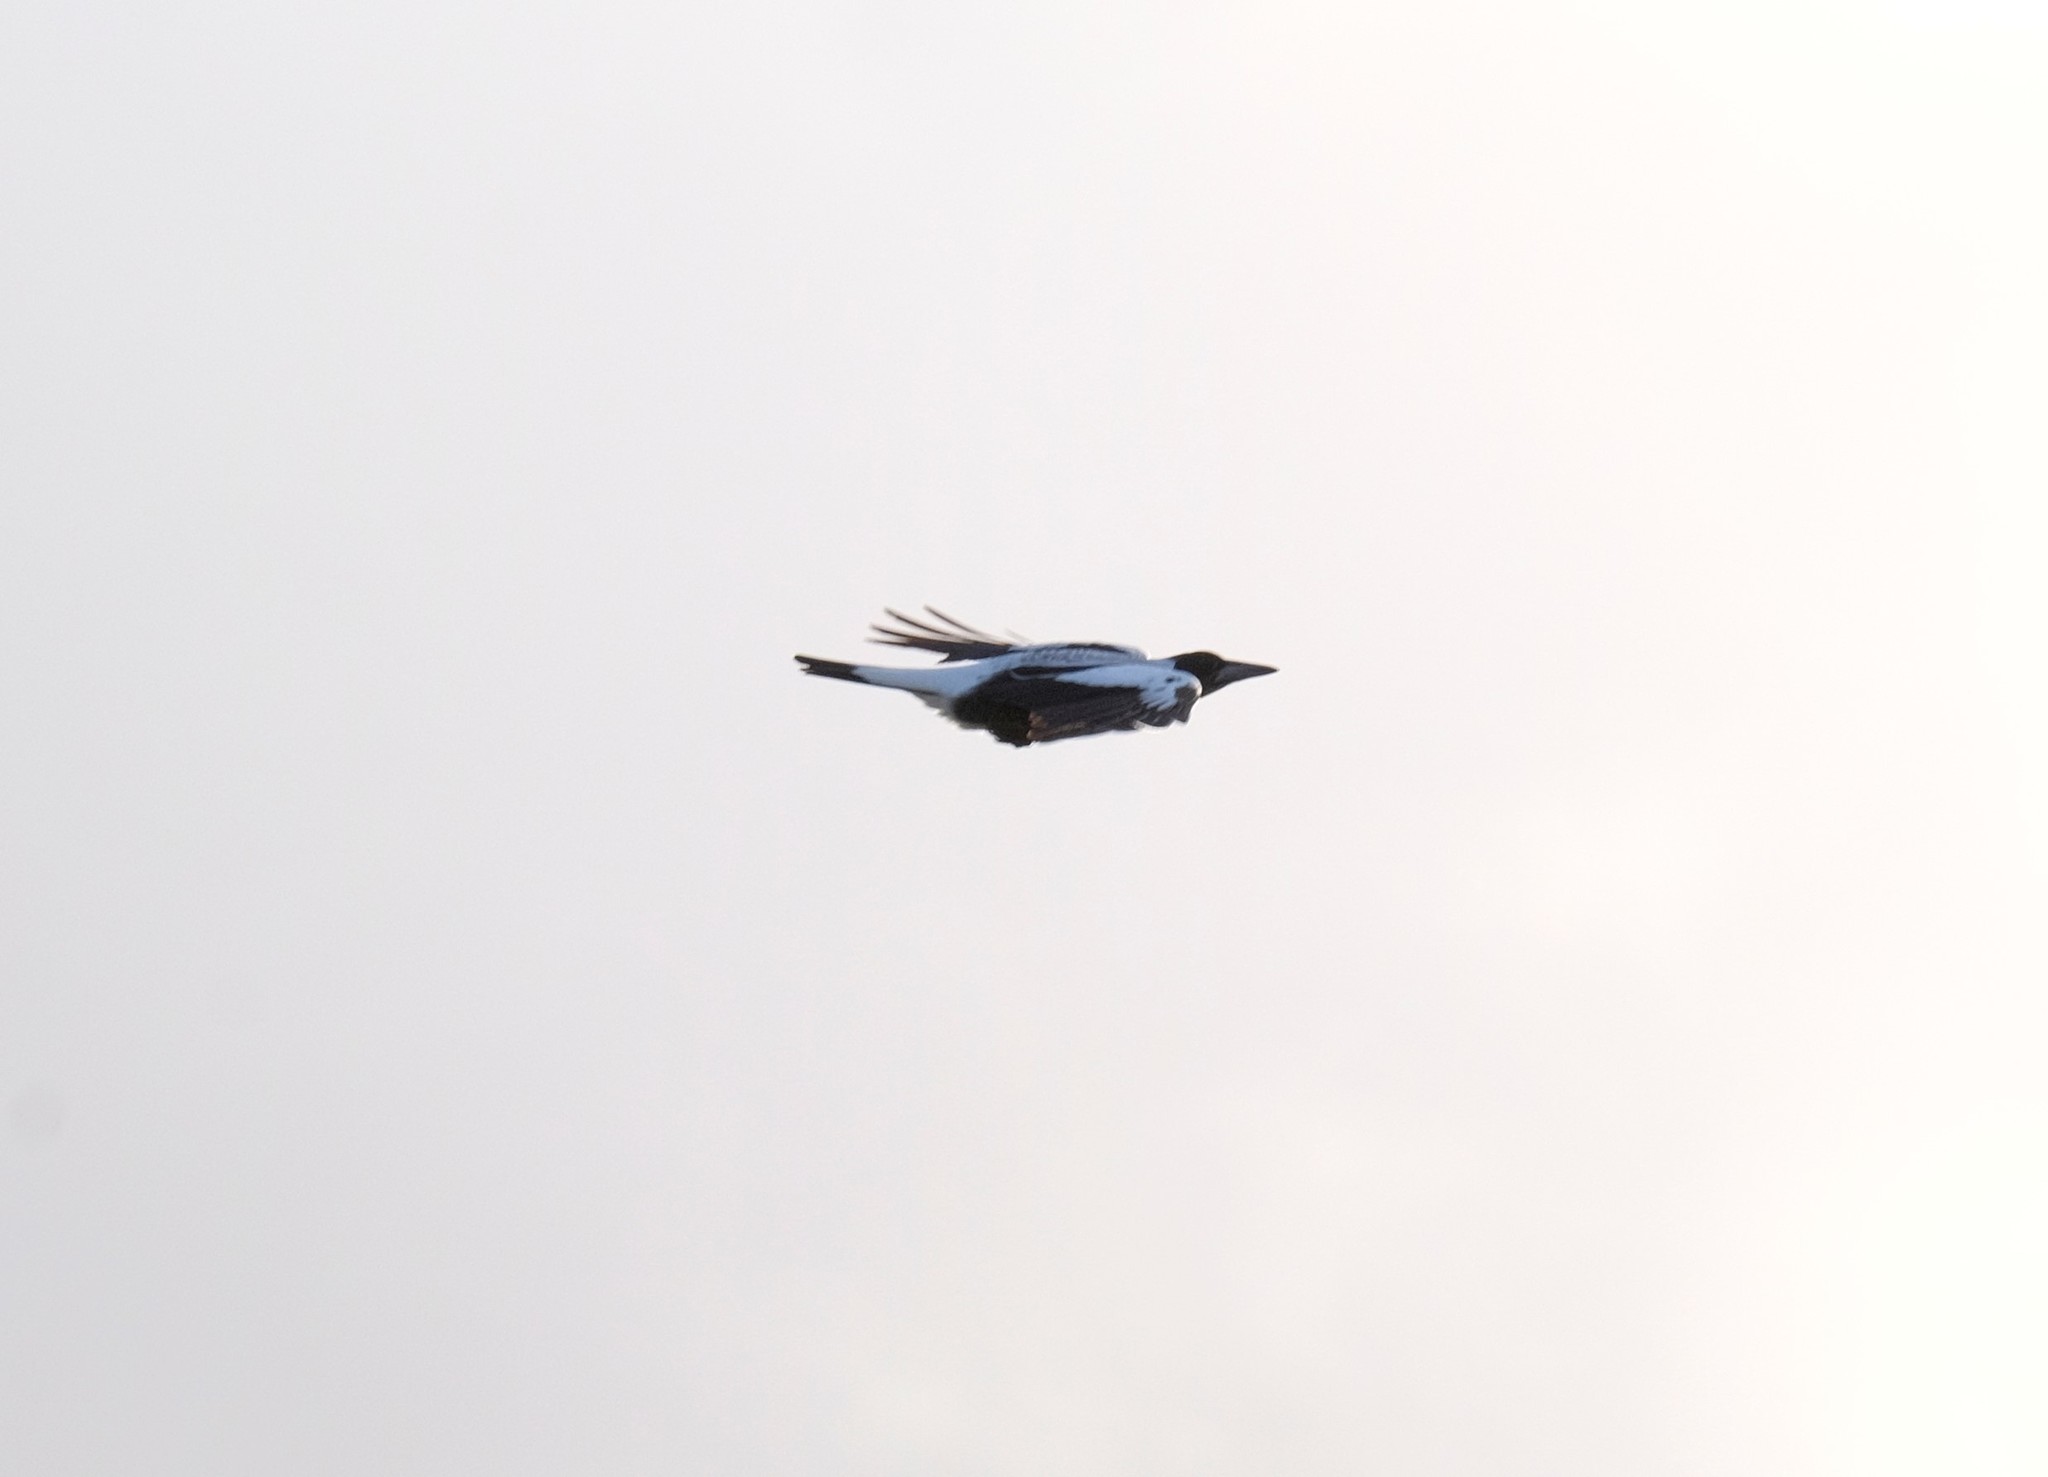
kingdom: Animalia
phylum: Chordata
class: Aves
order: Passeriformes
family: Cracticidae
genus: Gymnorhina
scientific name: Gymnorhina tibicen
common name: Australian magpie
